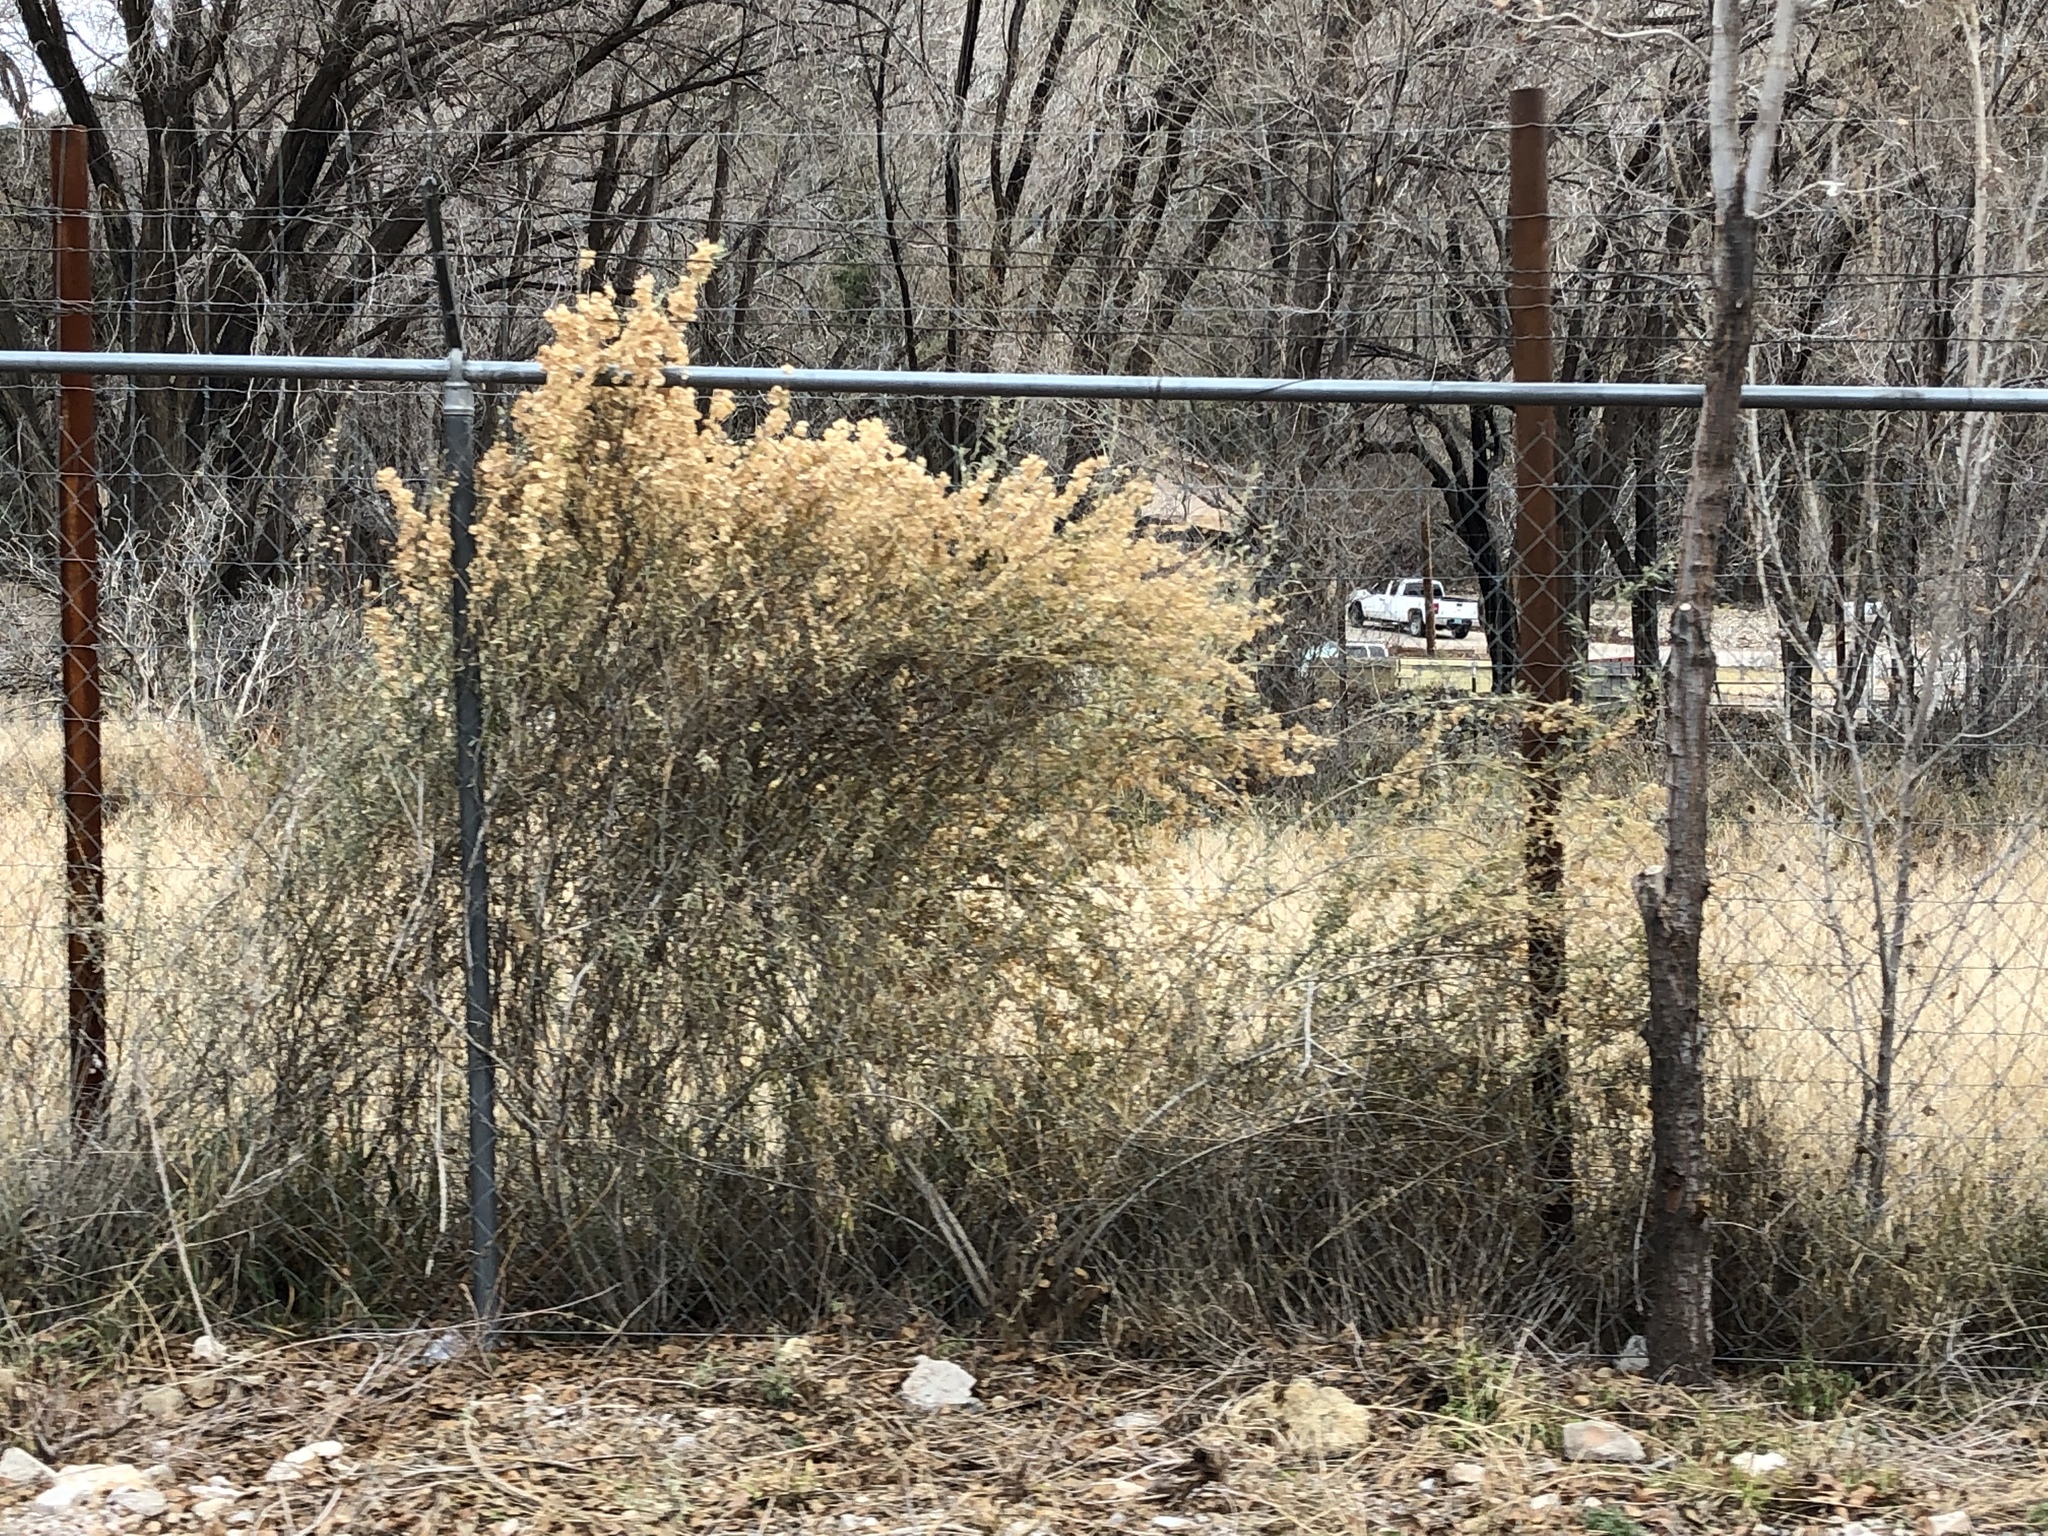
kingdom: Plantae
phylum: Tracheophyta
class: Magnoliopsida
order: Caryophyllales
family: Amaranthaceae
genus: Atriplex
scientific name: Atriplex canescens
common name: Four-wing saltbush
